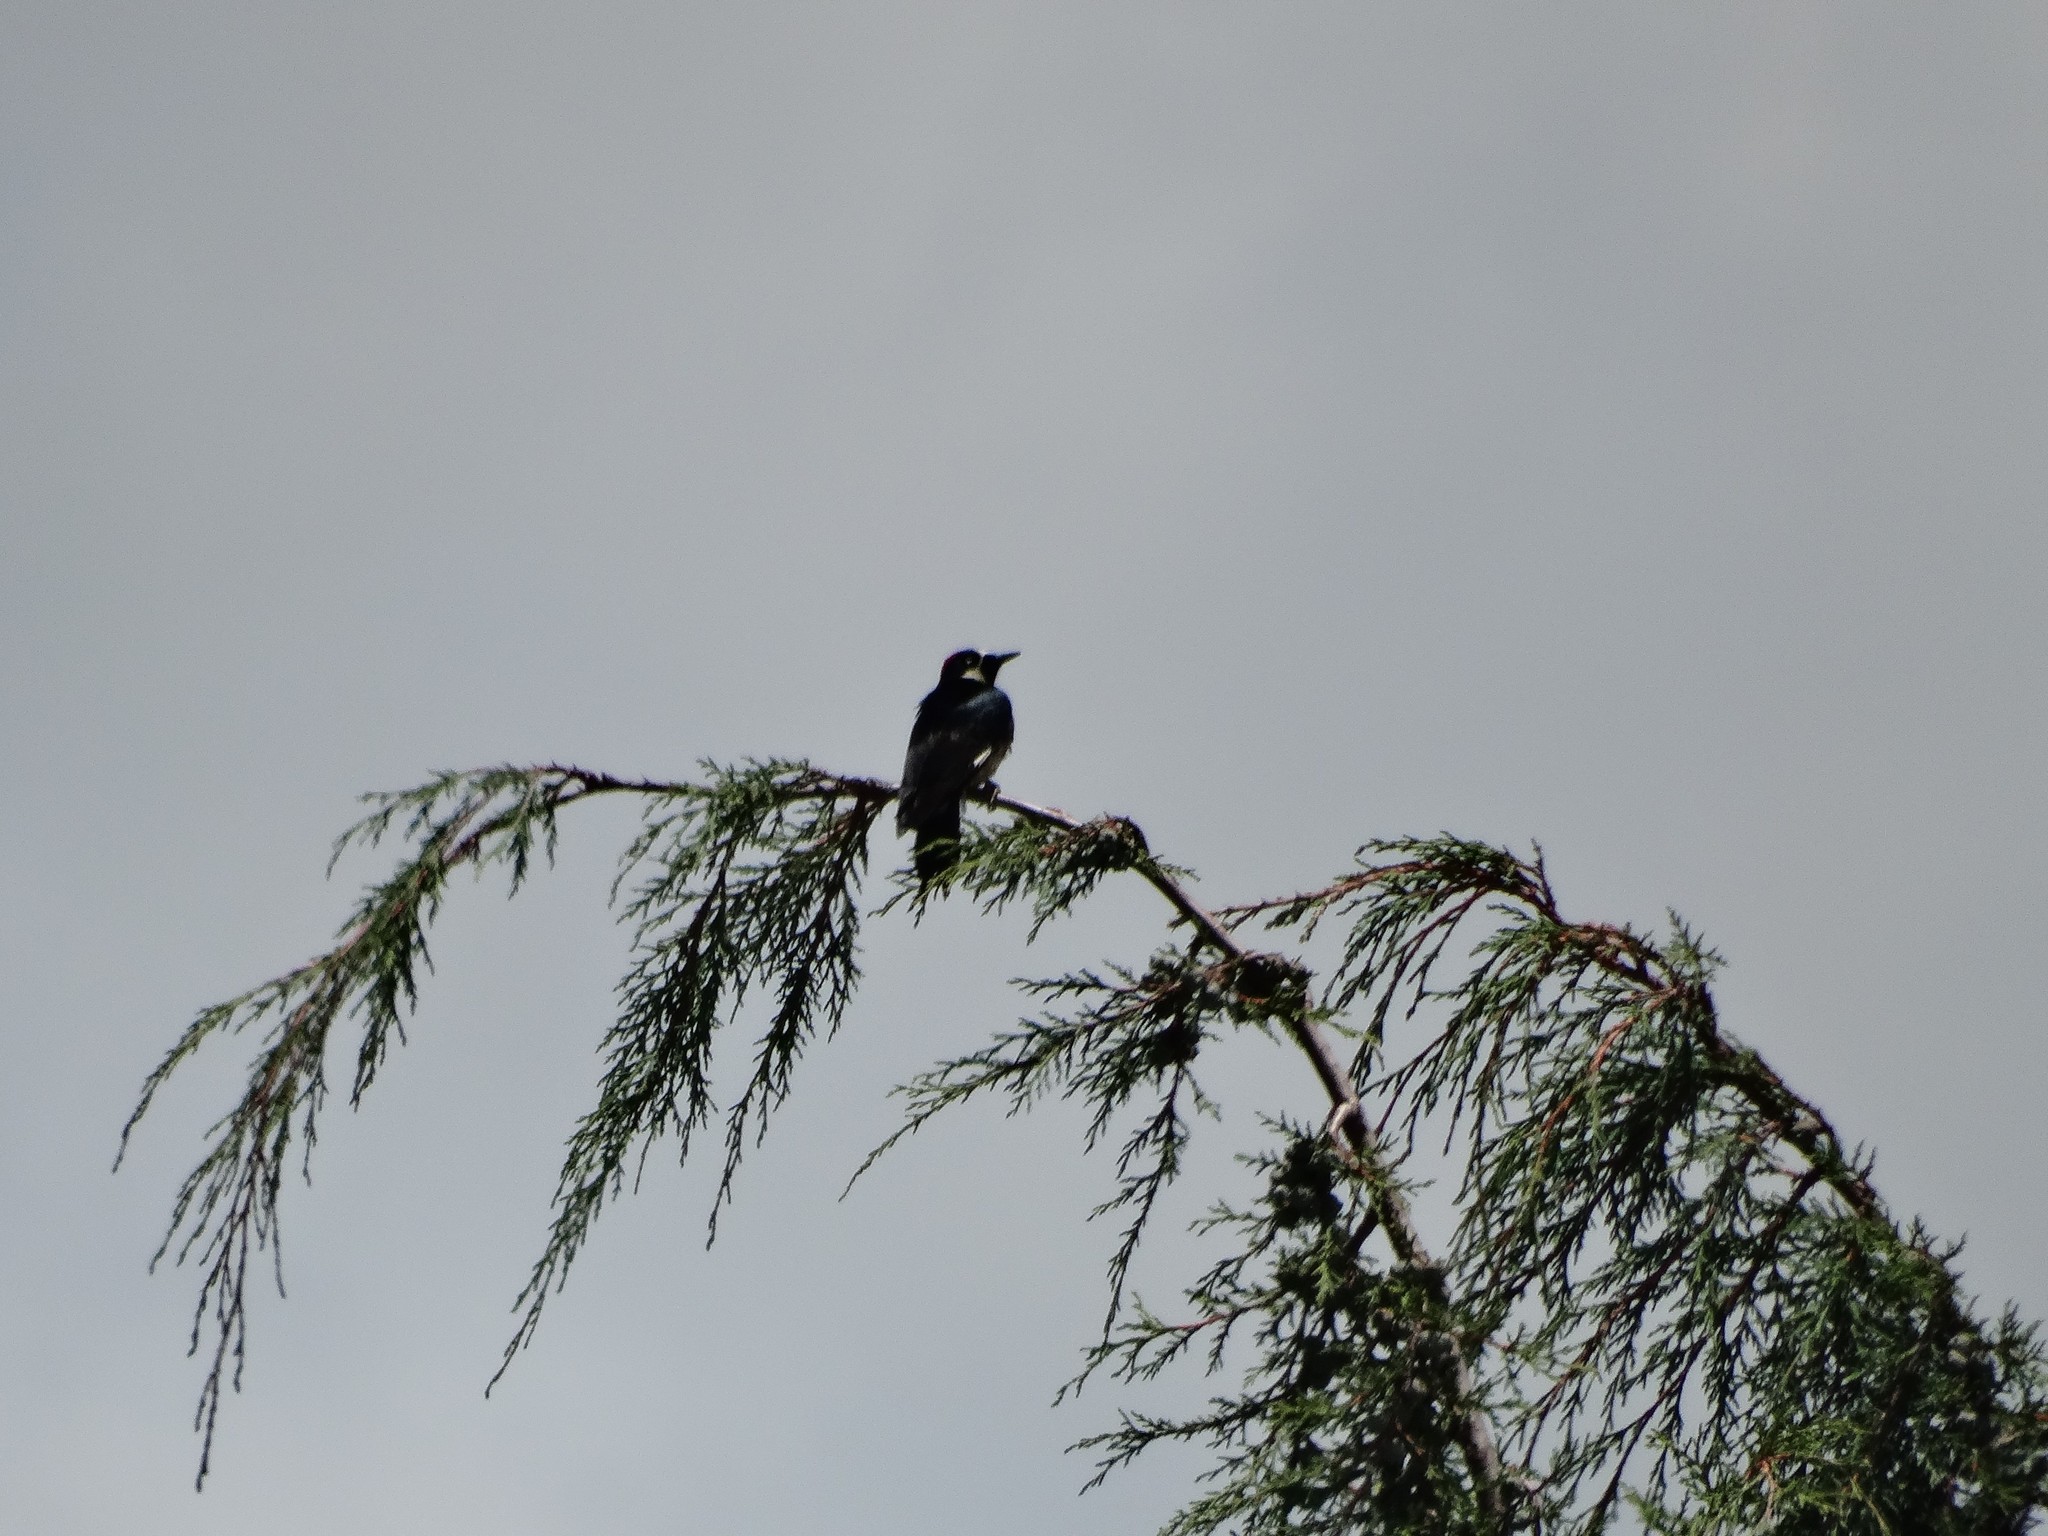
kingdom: Animalia
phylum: Chordata
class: Aves
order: Piciformes
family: Picidae
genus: Melanerpes
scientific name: Melanerpes formicivorus
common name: Acorn woodpecker
